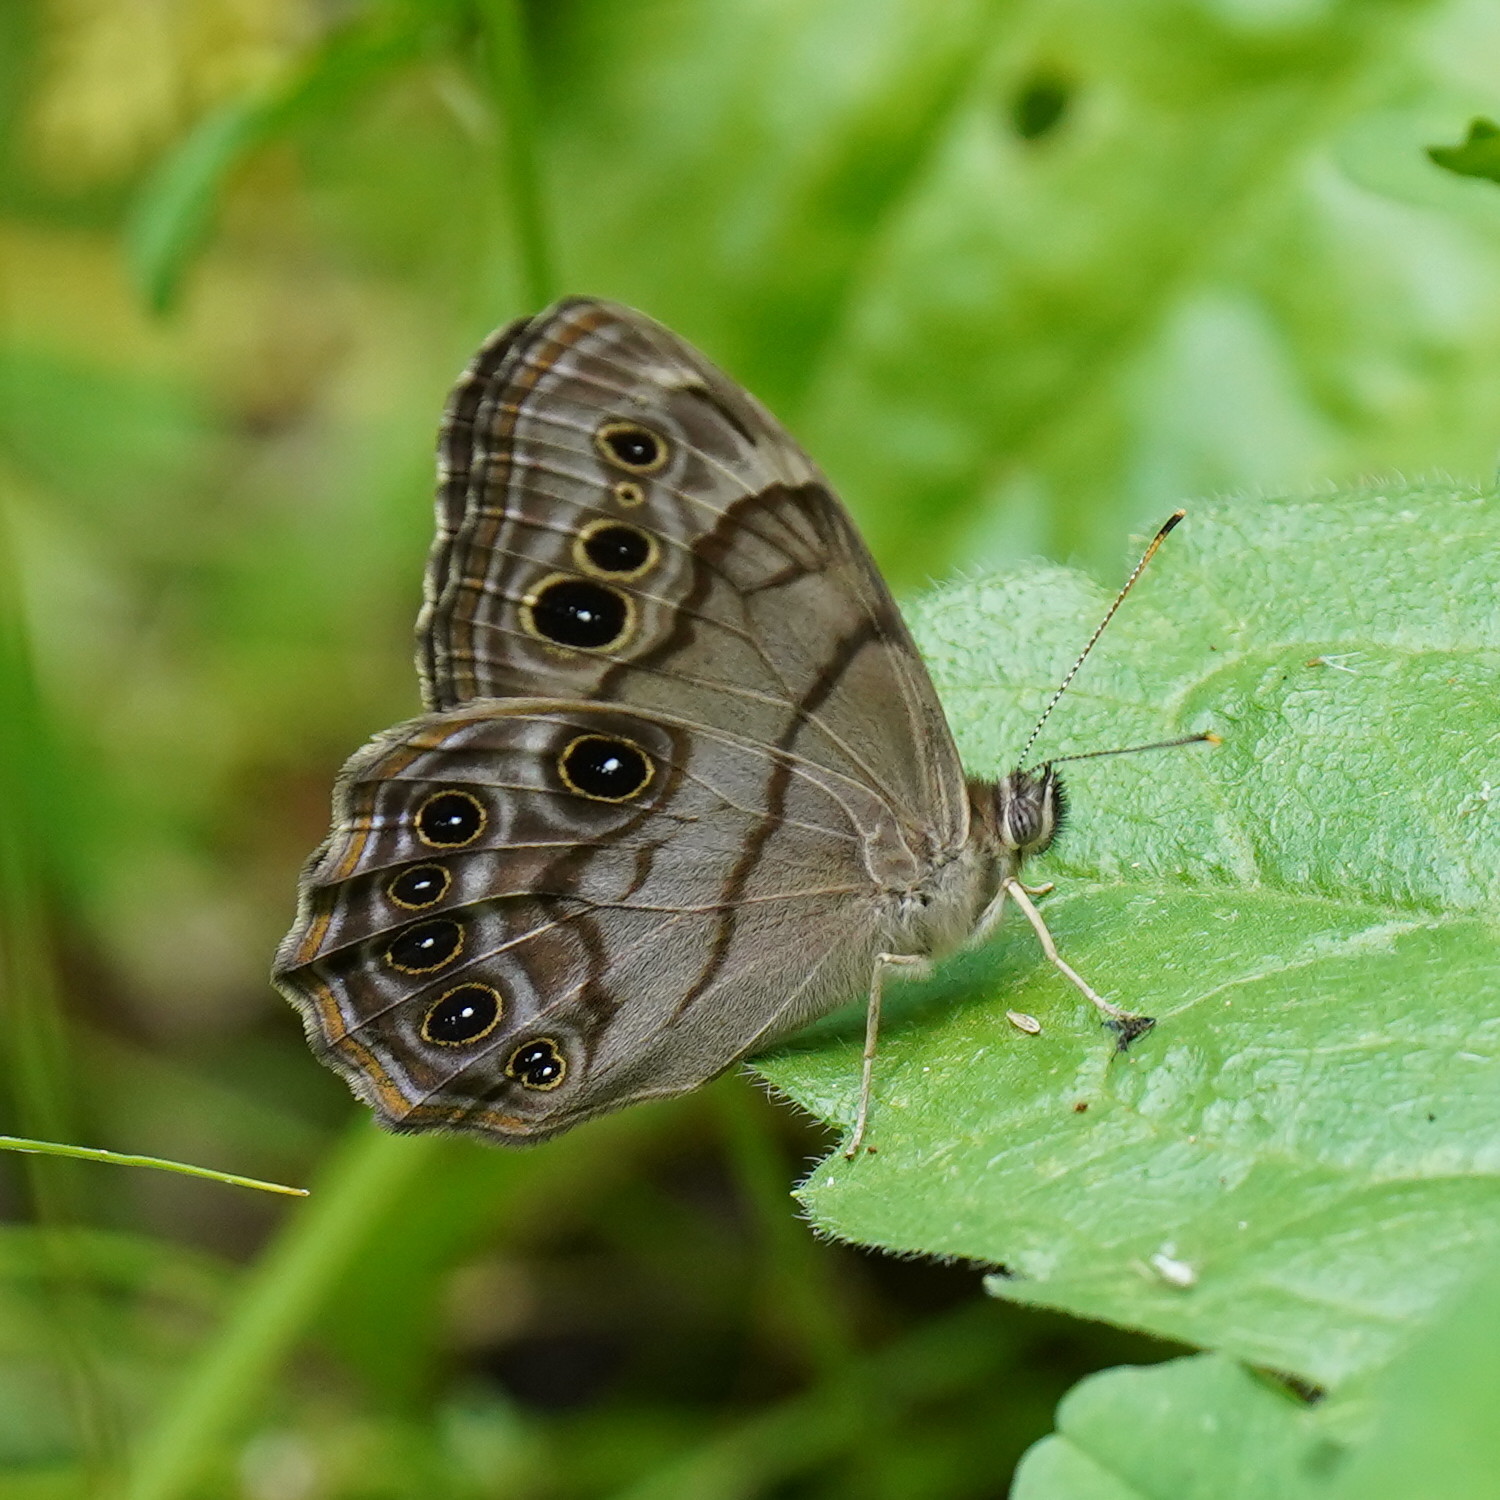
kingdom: Animalia
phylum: Arthropoda
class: Insecta
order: Lepidoptera
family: Nymphalidae
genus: Lethe
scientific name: Lethe anthedon
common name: Northern pearly-eye
